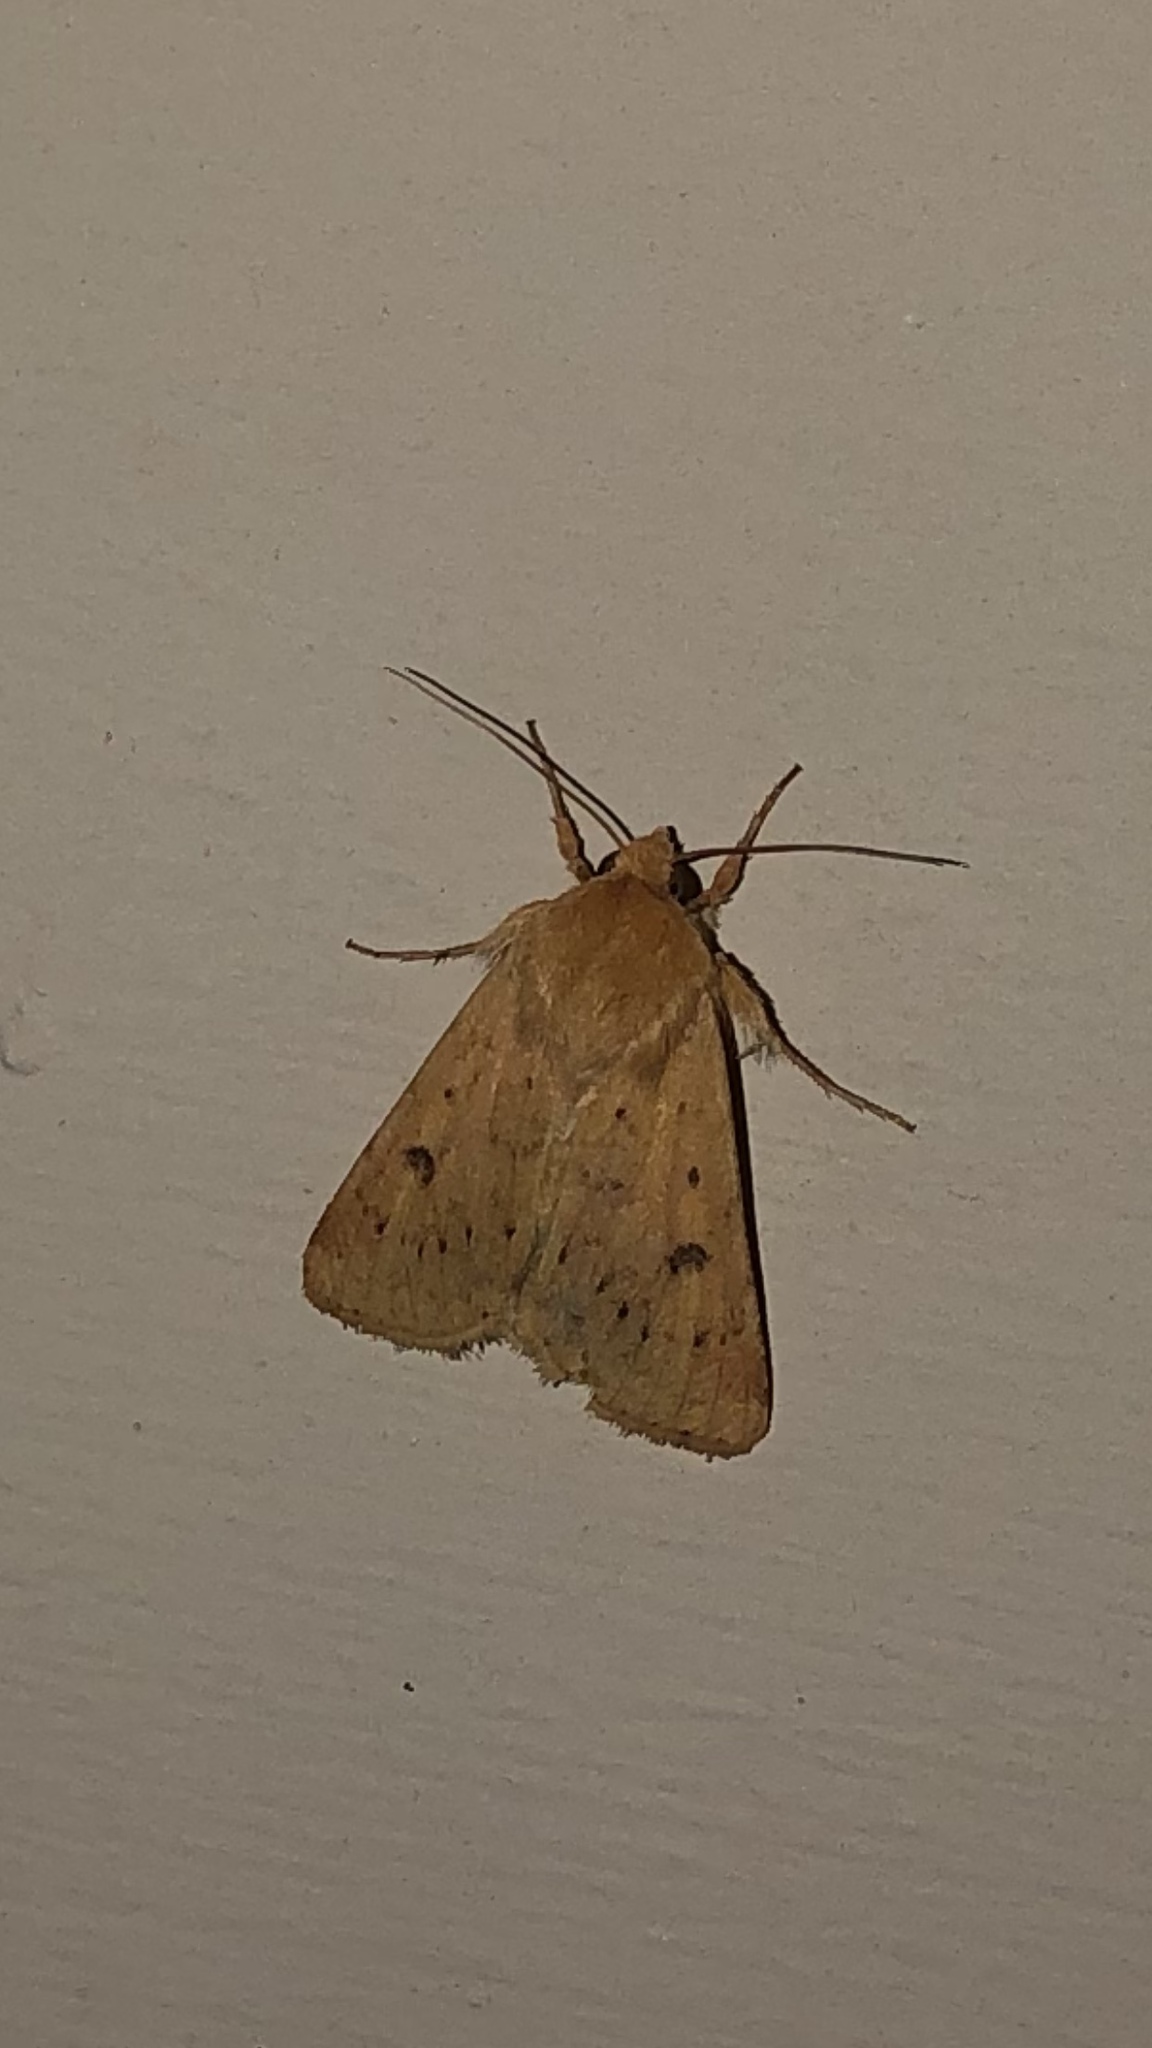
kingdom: Animalia
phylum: Arthropoda
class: Insecta
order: Lepidoptera
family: Noctuidae
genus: Helicoverpa
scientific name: Helicoverpa zea
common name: Bollworm
